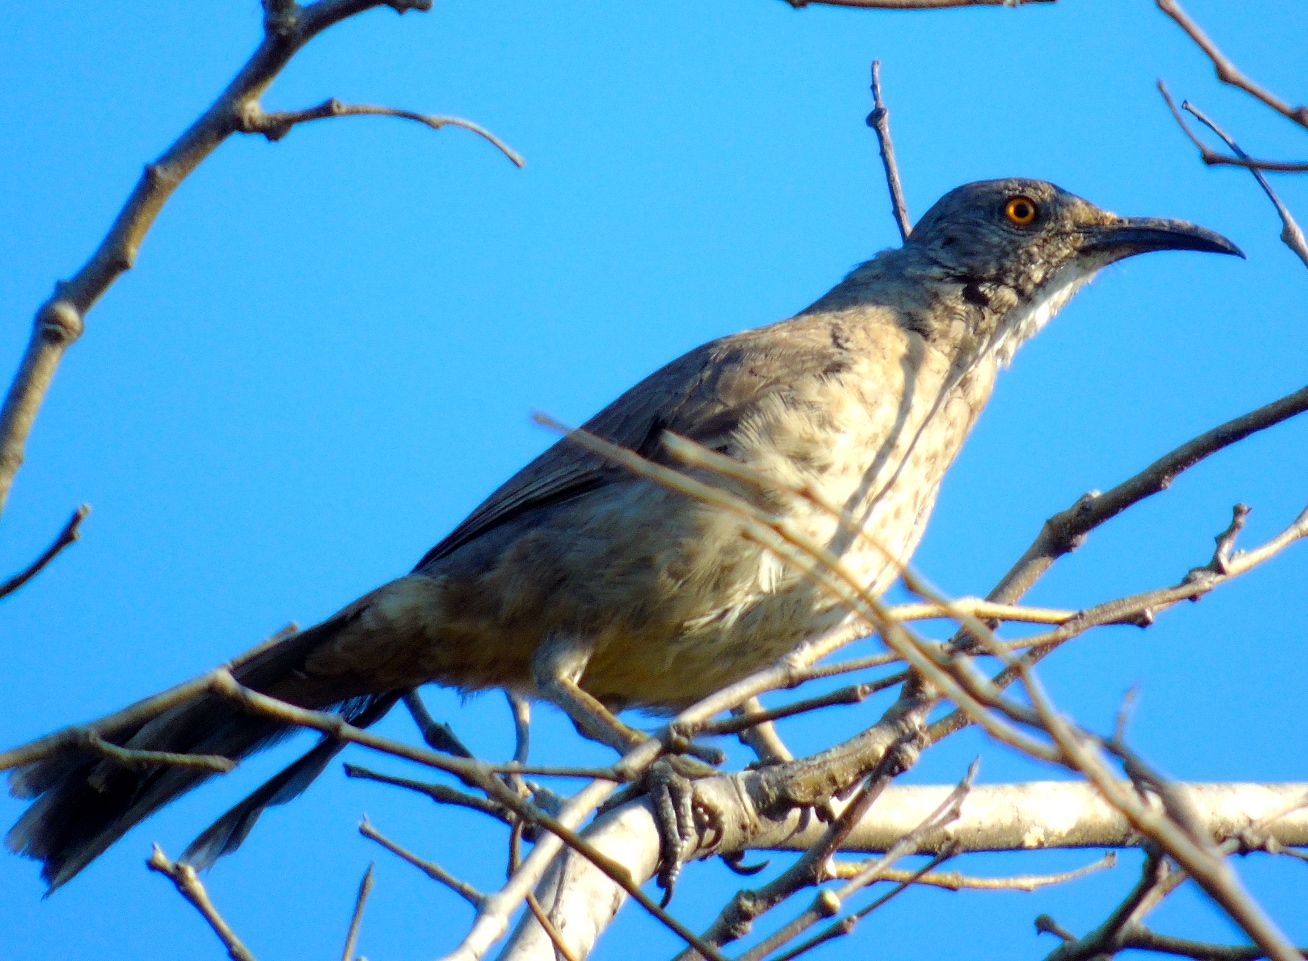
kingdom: Animalia
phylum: Chordata
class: Aves
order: Passeriformes
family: Mimidae
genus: Toxostoma
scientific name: Toxostoma curvirostre
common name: Curve-billed thrasher
